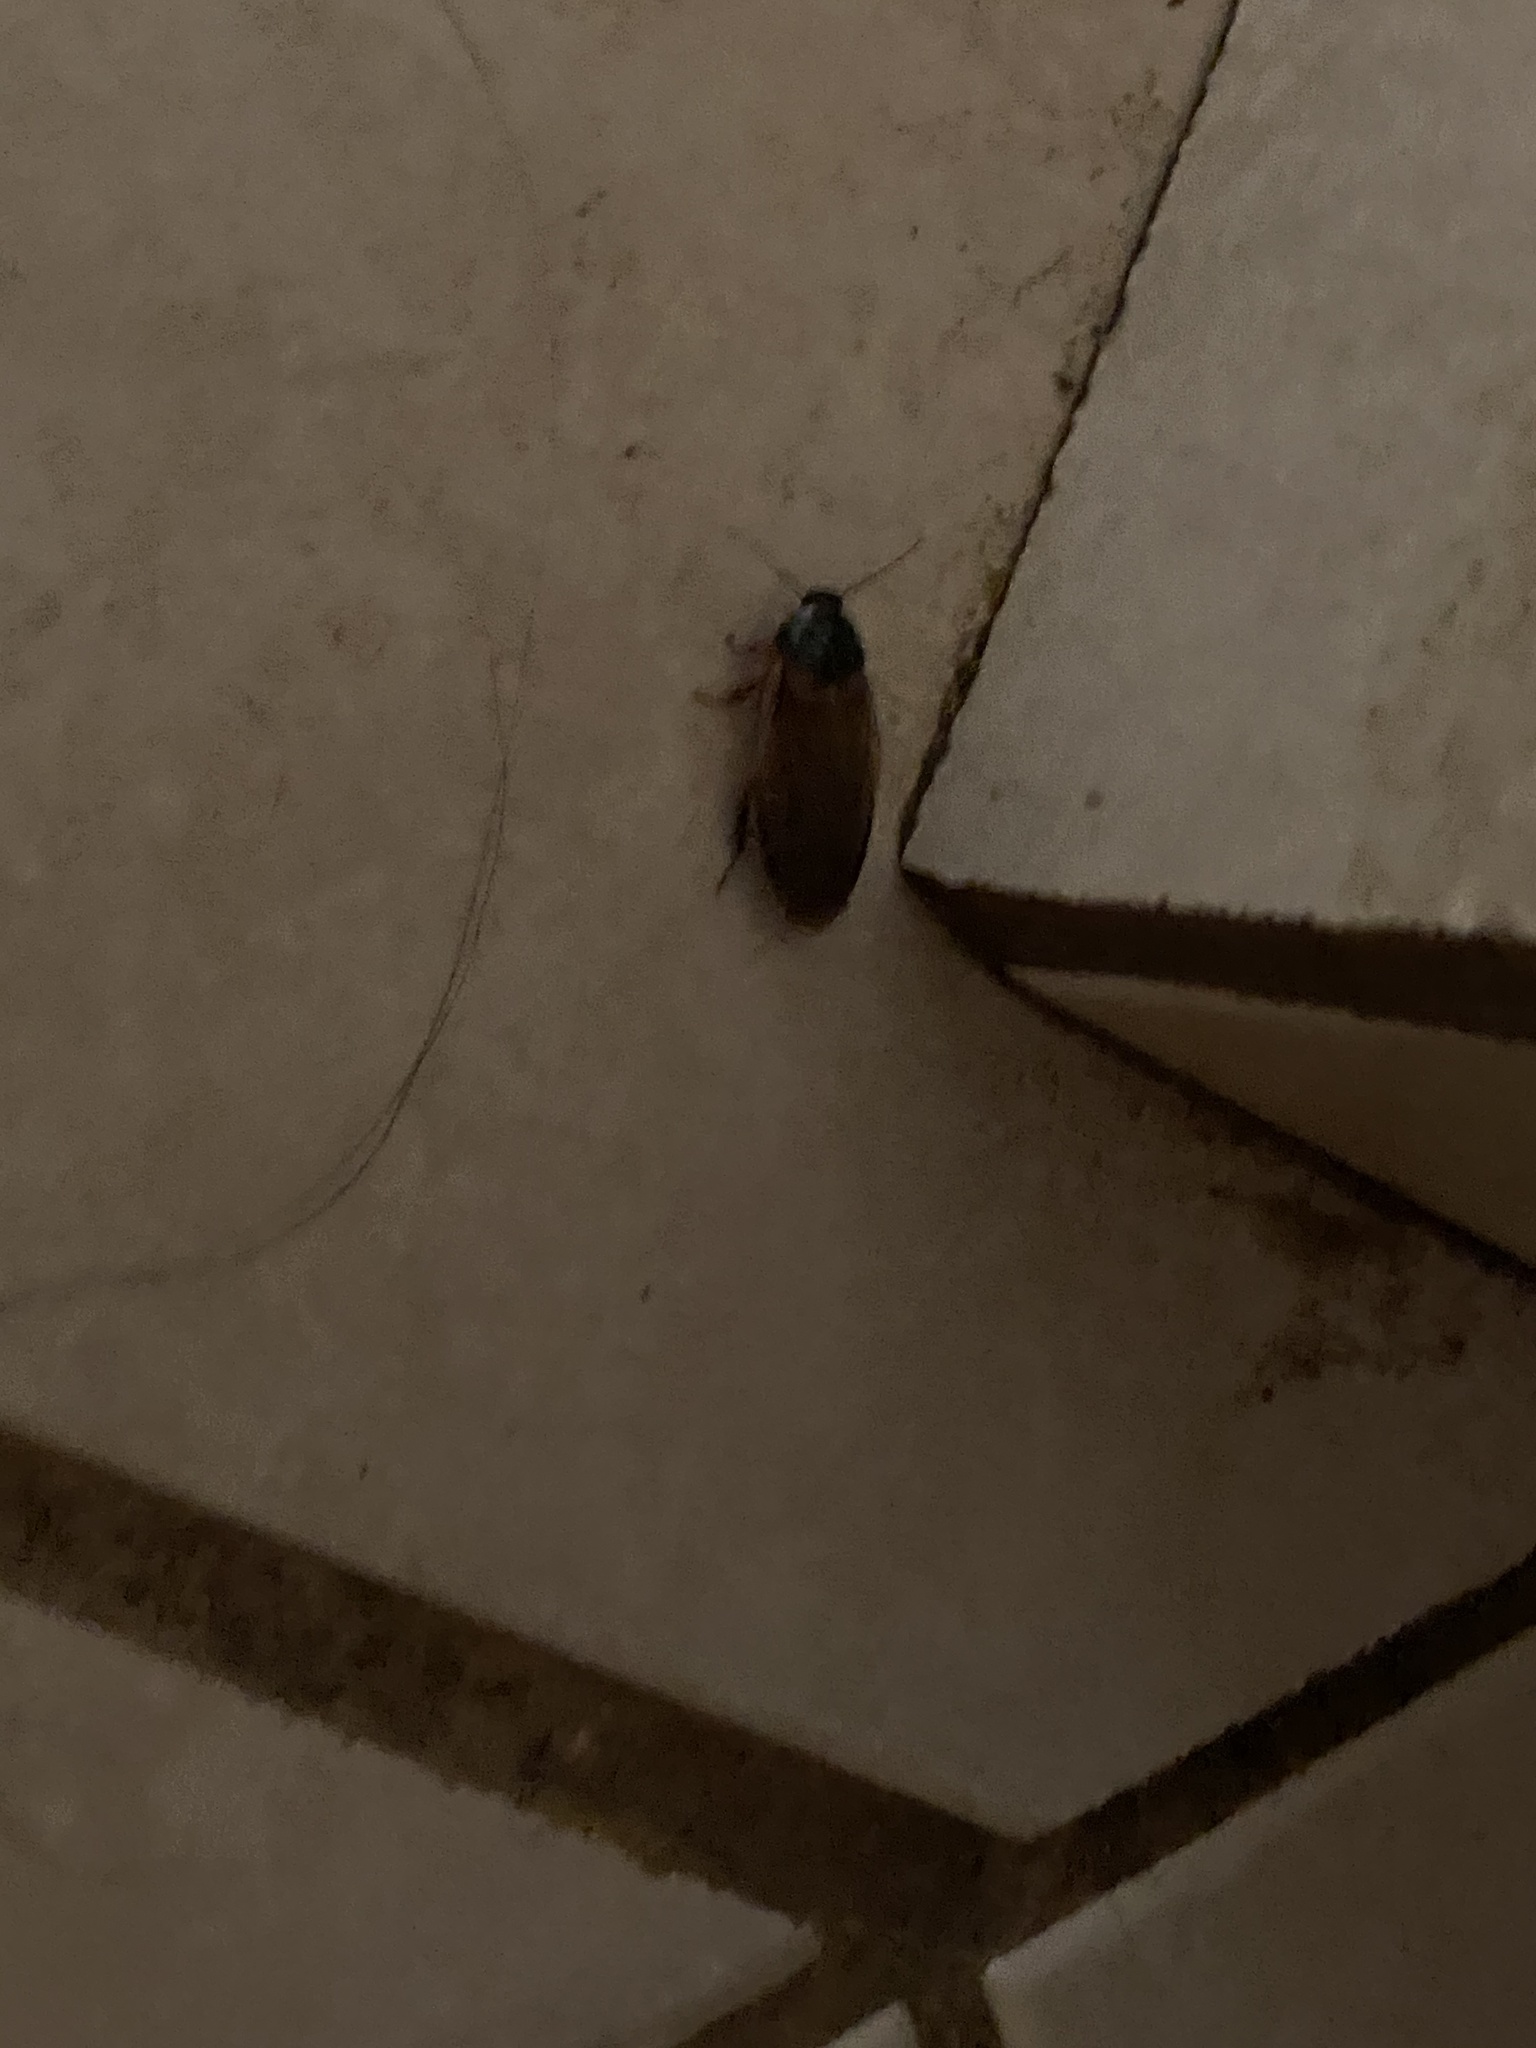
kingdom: Animalia
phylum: Arthropoda
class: Insecta
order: Blattodea
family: Blaberidae
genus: Pycnoscelus
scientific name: Pycnoscelus surinamensis
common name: Surinam cockroach
